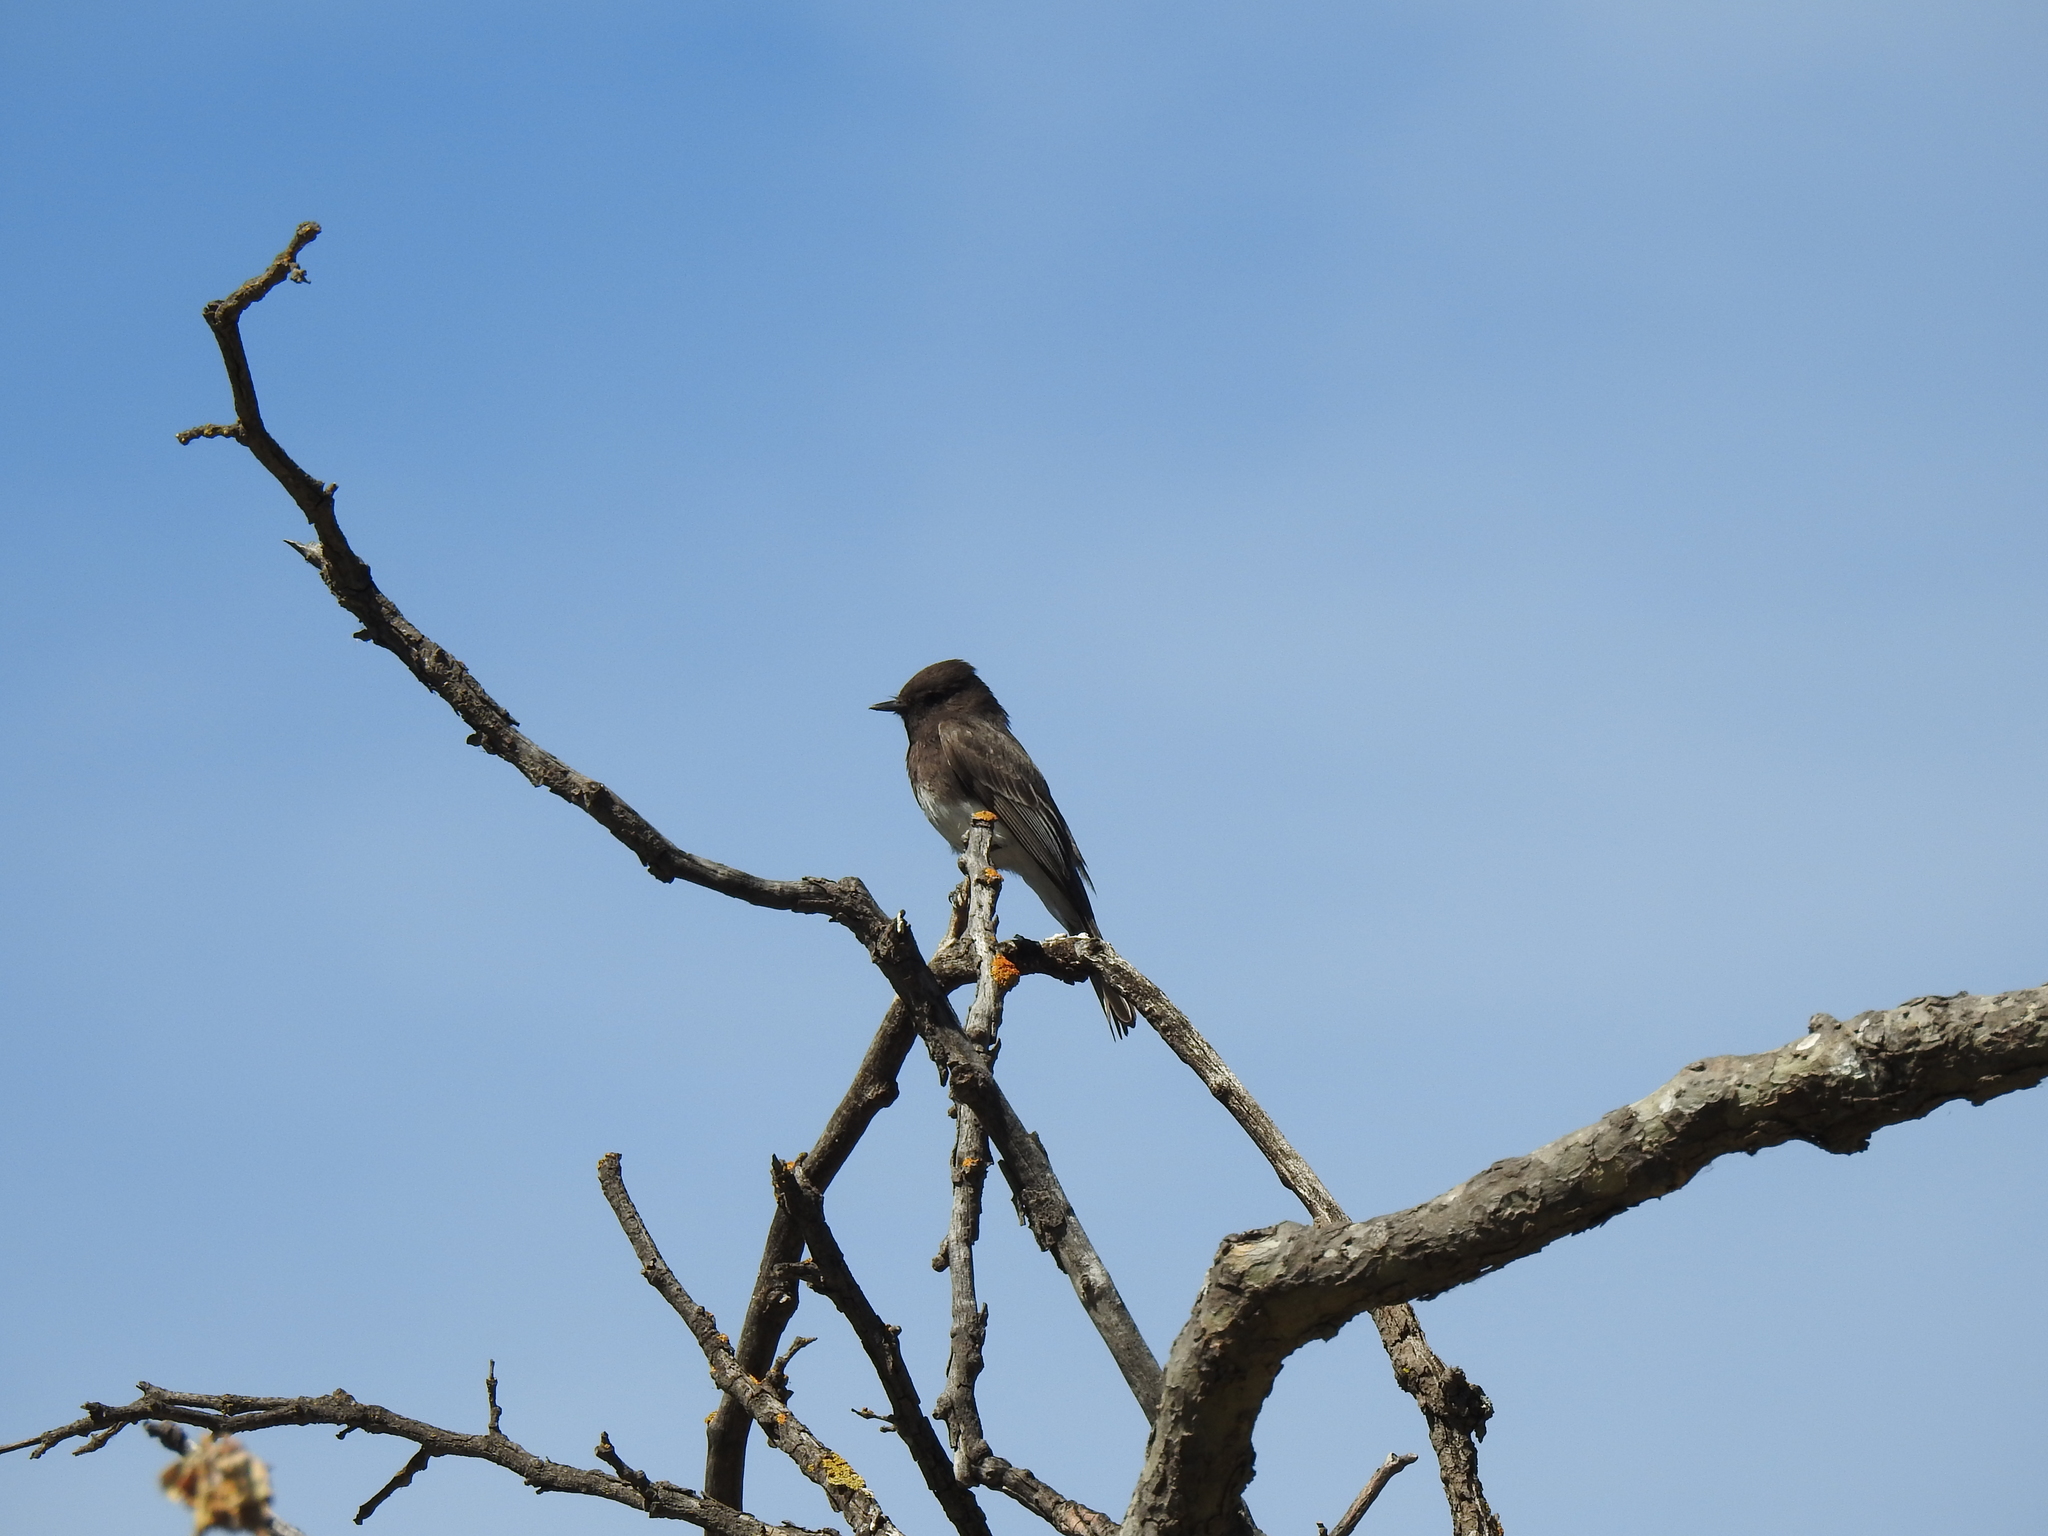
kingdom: Animalia
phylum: Chordata
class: Aves
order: Passeriformes
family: Tyrannidae
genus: Sayornis
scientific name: Sayornis nigricans
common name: Black phoebe
